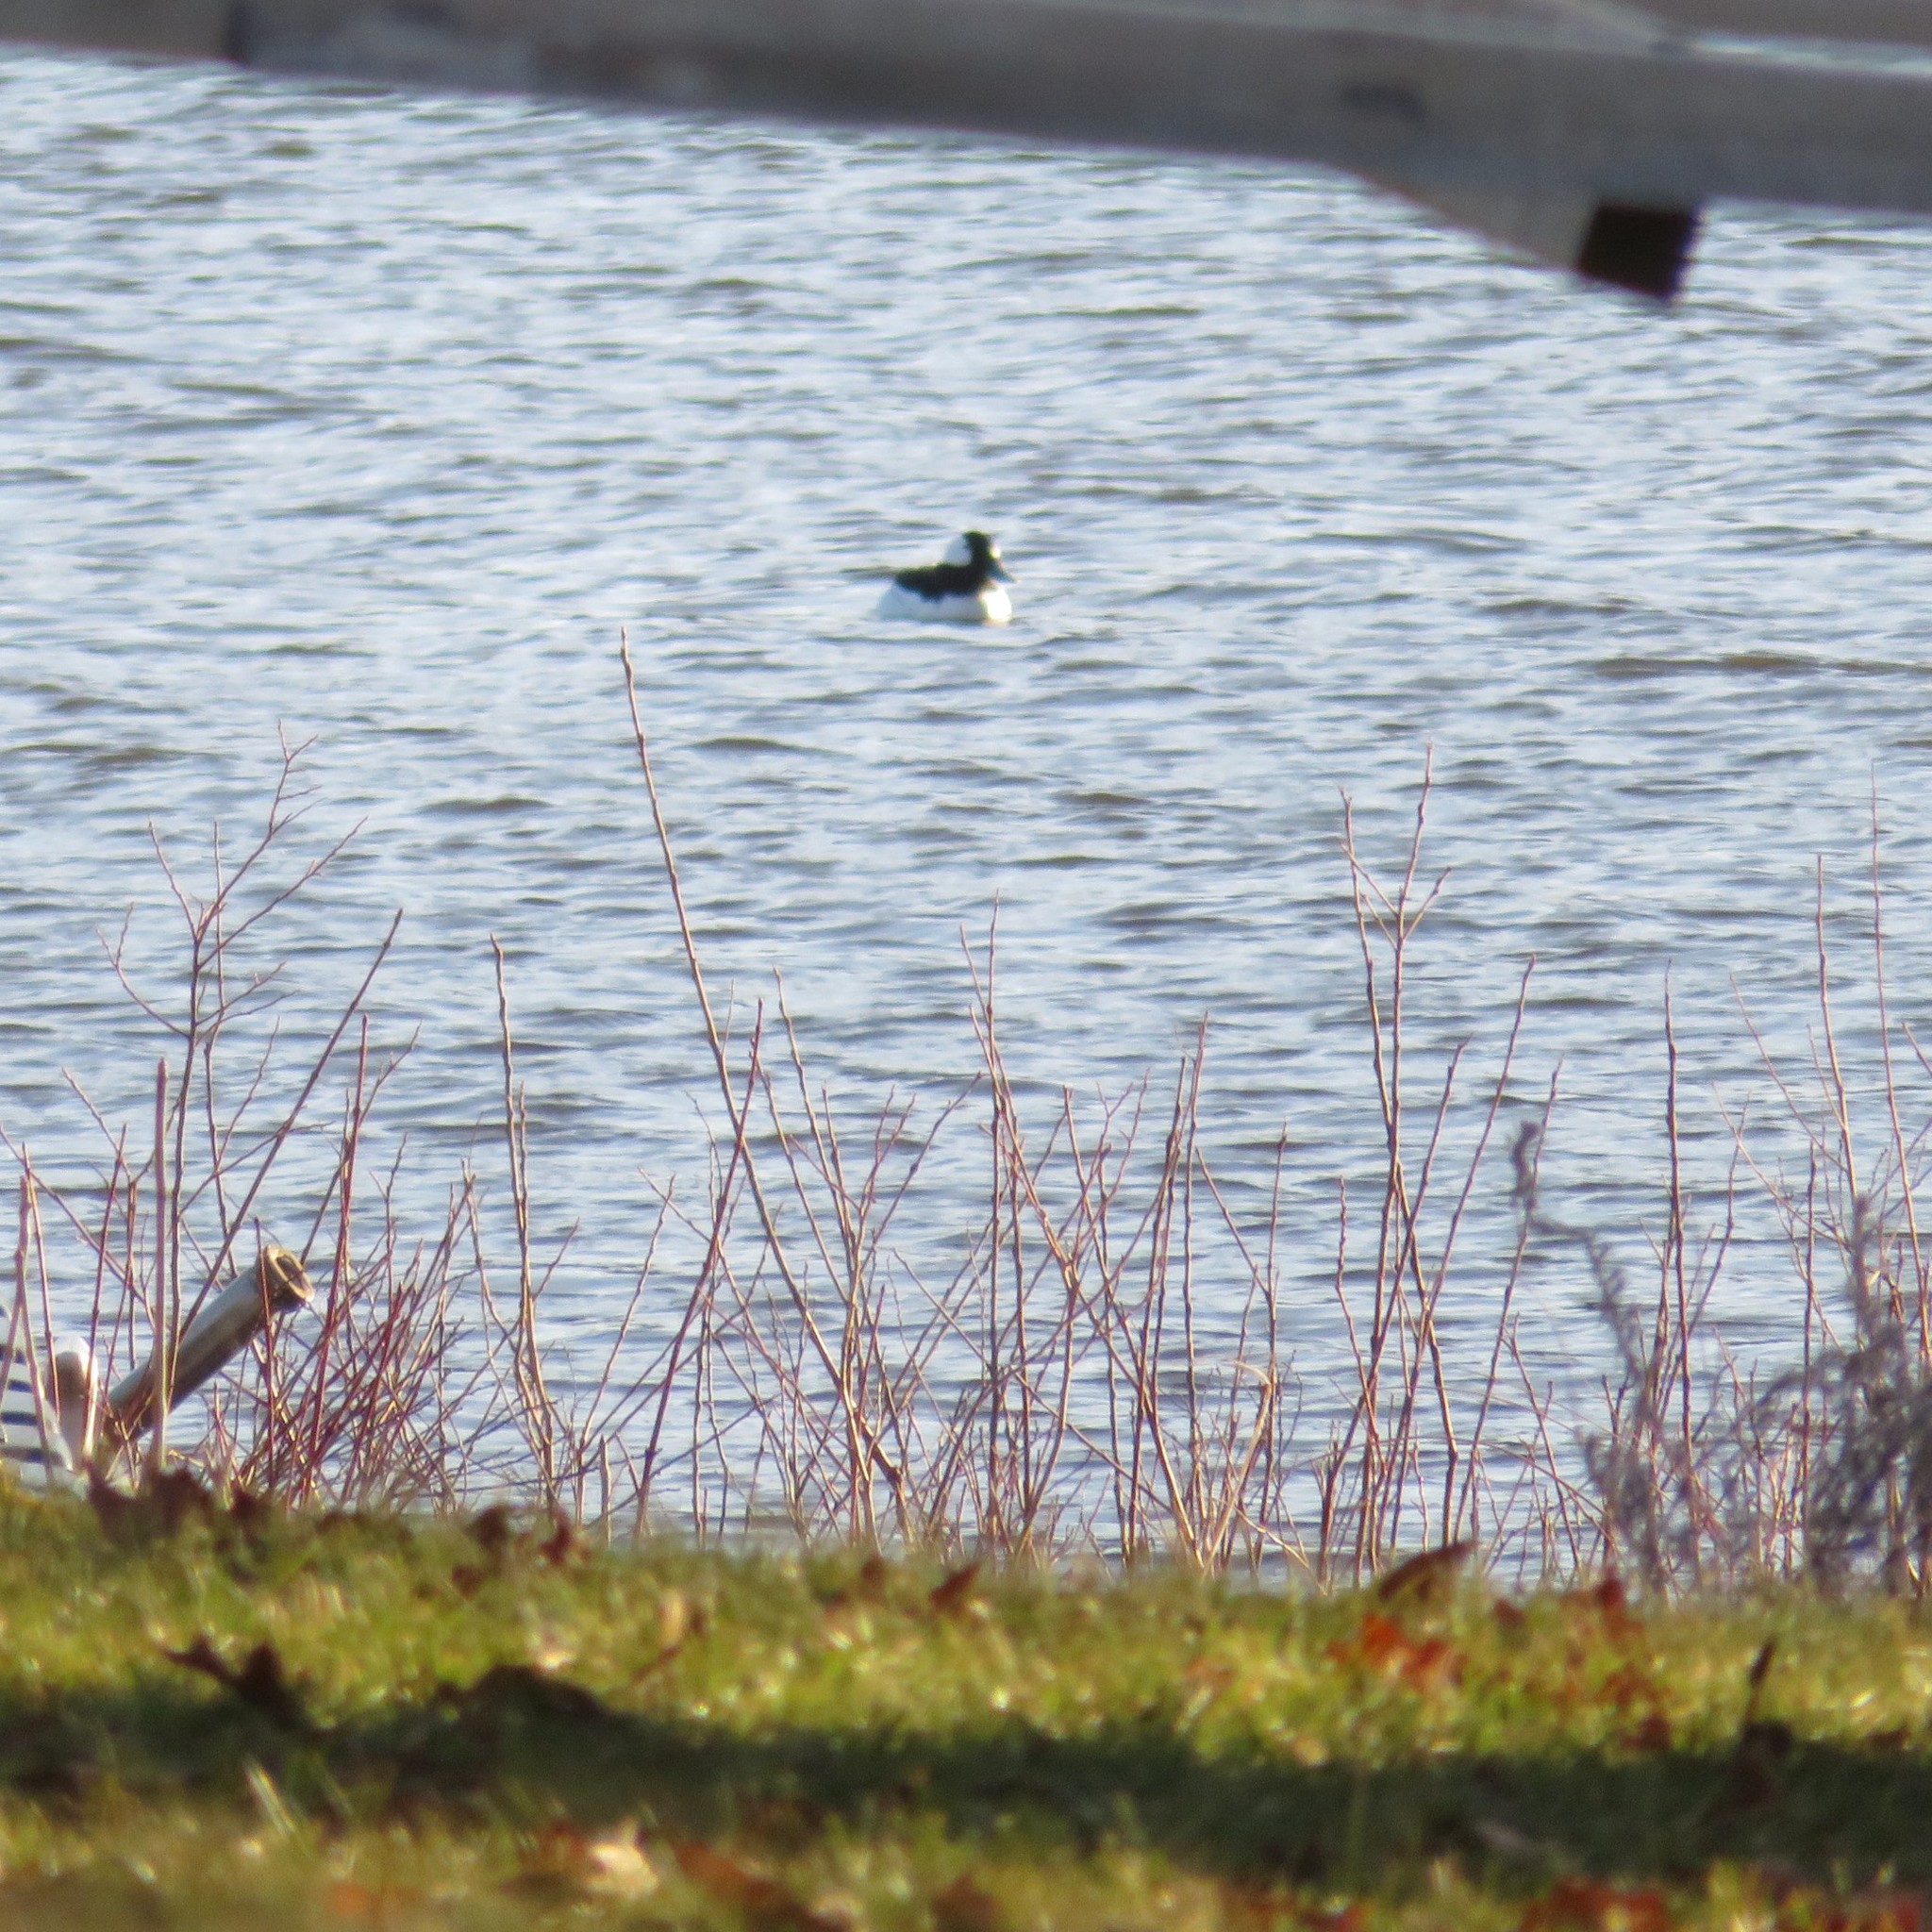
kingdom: Animalia
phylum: Chordata
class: Aves
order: Anseriformes
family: Anatidae
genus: Bucephala
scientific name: Bucephala albeola
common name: Bufflehead
